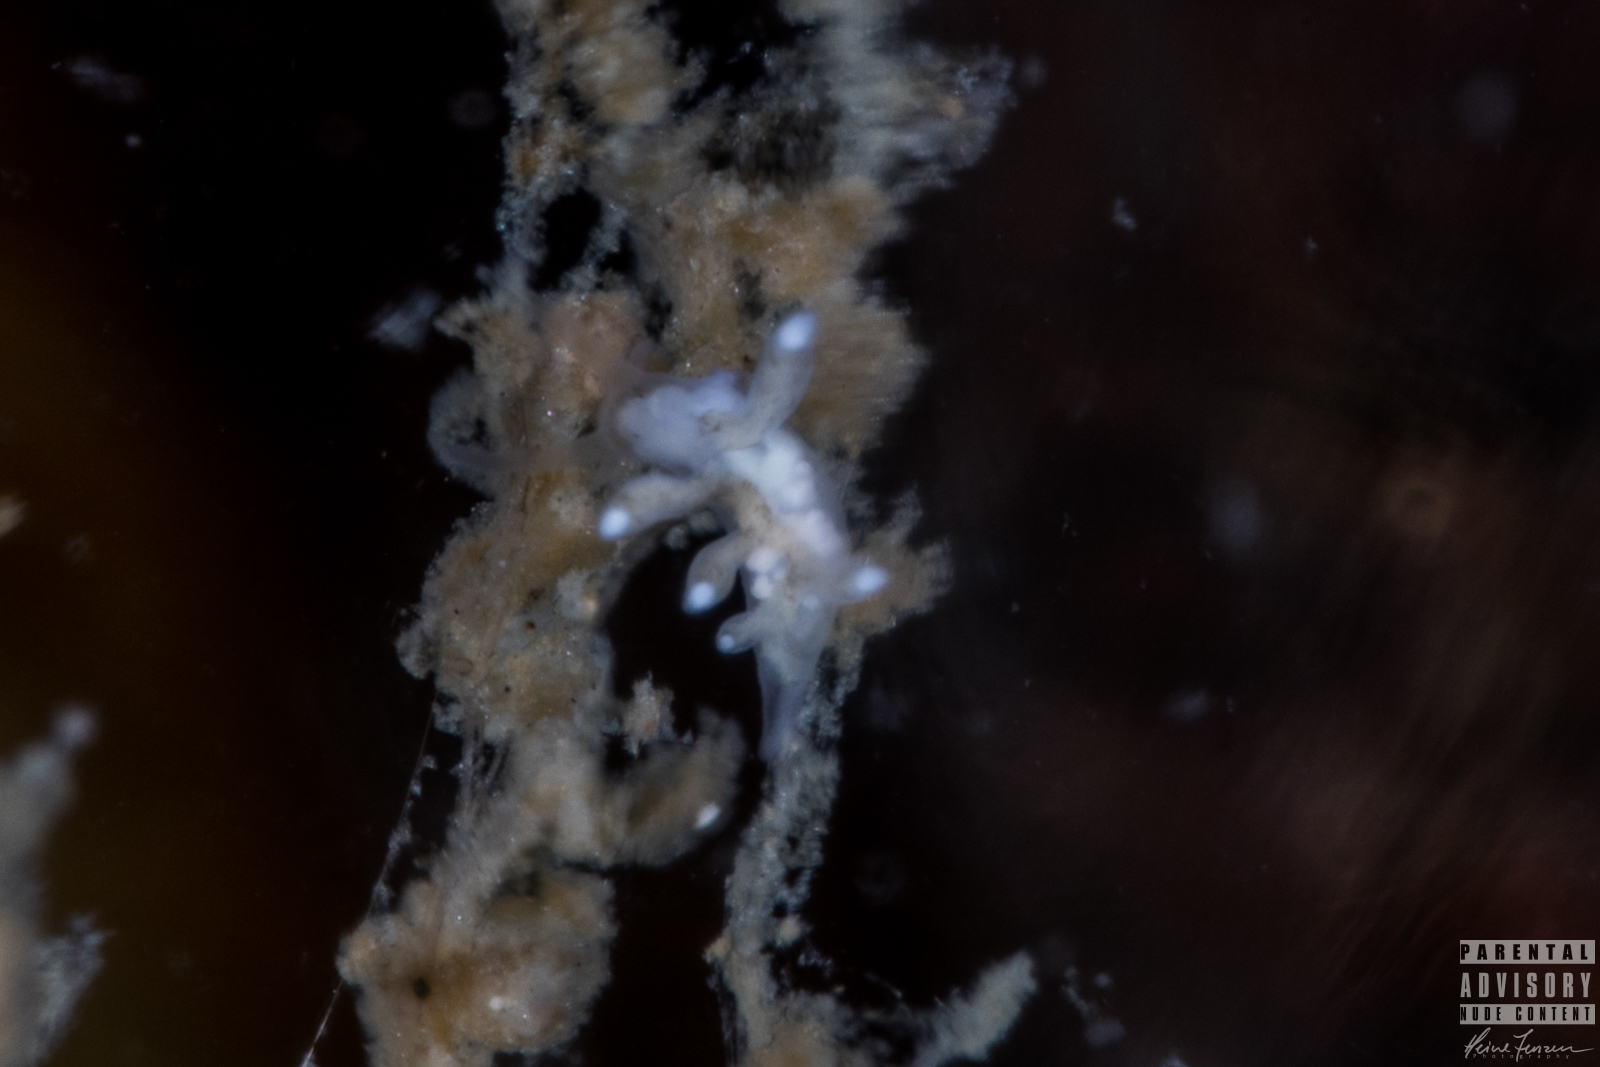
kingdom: Animalia
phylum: Mollusca
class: Gastropoda
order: Nudibranchia
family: Tergipedidae
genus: Tergipes
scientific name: Tergipes tergipes
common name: Johnston's balloon eolis
